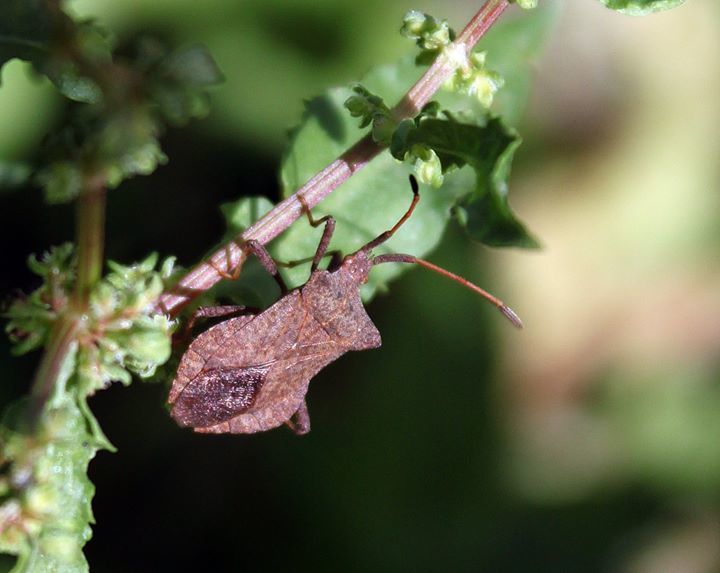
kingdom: Animalia
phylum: Arthropoda
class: Insecta
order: Hemiptera
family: Coreidae
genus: Coreus
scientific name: Coreus marginatus
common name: Dock bug
